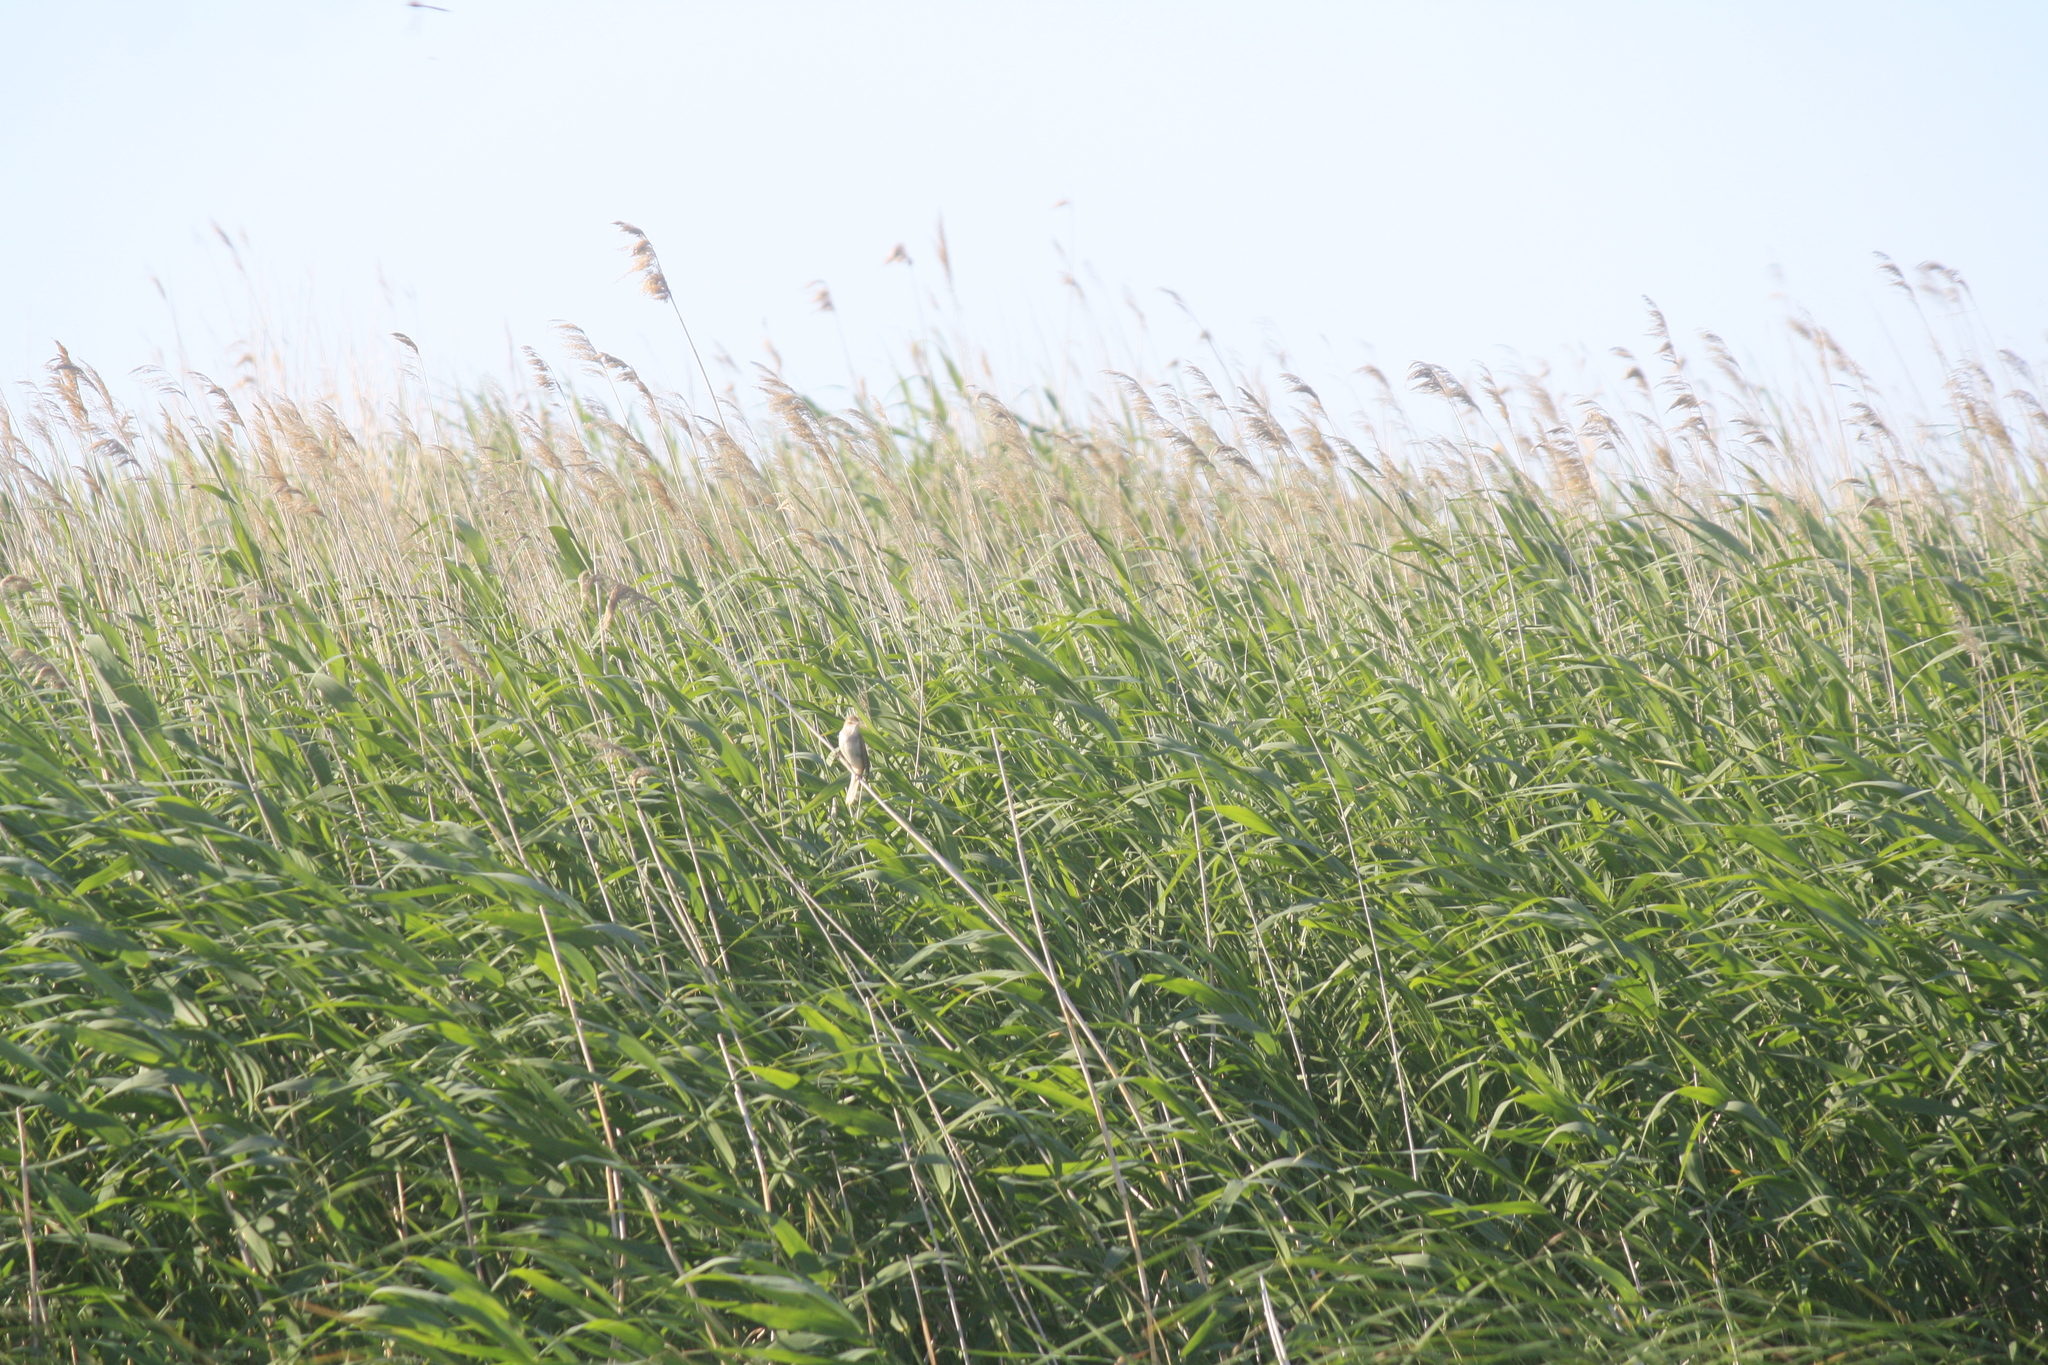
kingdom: Plantae
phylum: Tracheophyta
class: Liliopsida
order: Poales
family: Poaceae
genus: Phragmites
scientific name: Phragmites australis
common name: Common reed
